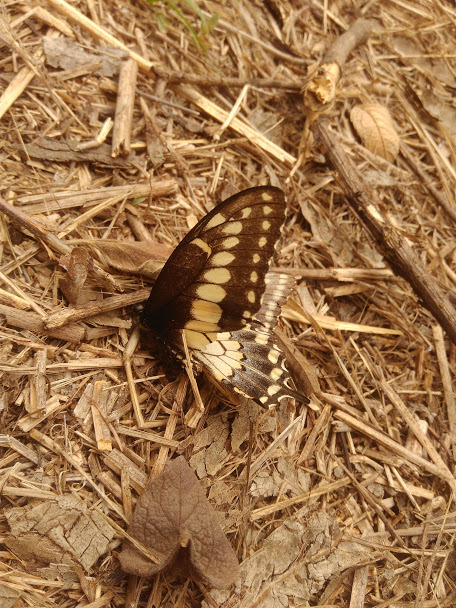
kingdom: Animalia
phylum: Arthropoda
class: Insecta
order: Lepidoptera
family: Papilionidae
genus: Papilio
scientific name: Papilio polyxenes
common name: Black swallowtail
